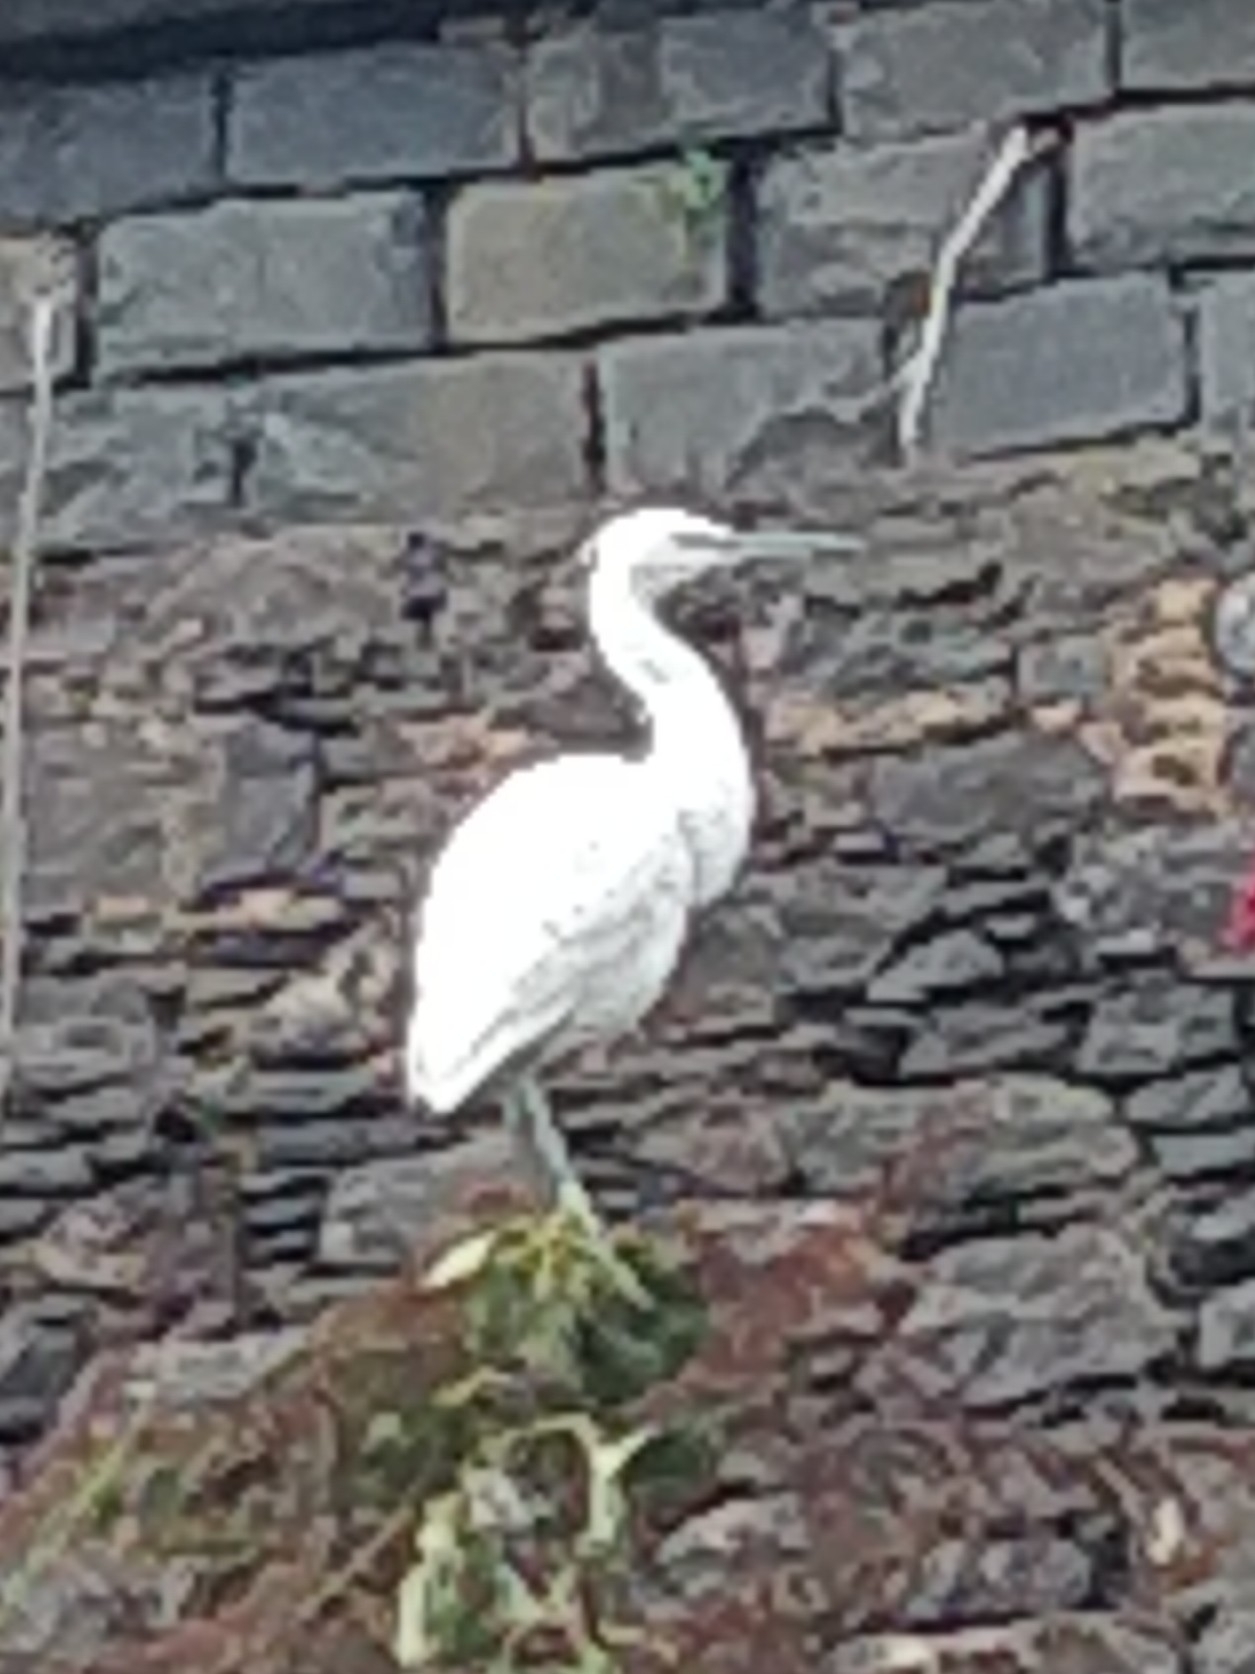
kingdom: Animalia
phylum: Chordata
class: Aves
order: Pelecaniformes
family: Ardeidae
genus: Egretta
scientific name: Egretta garzetta
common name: Little egret
